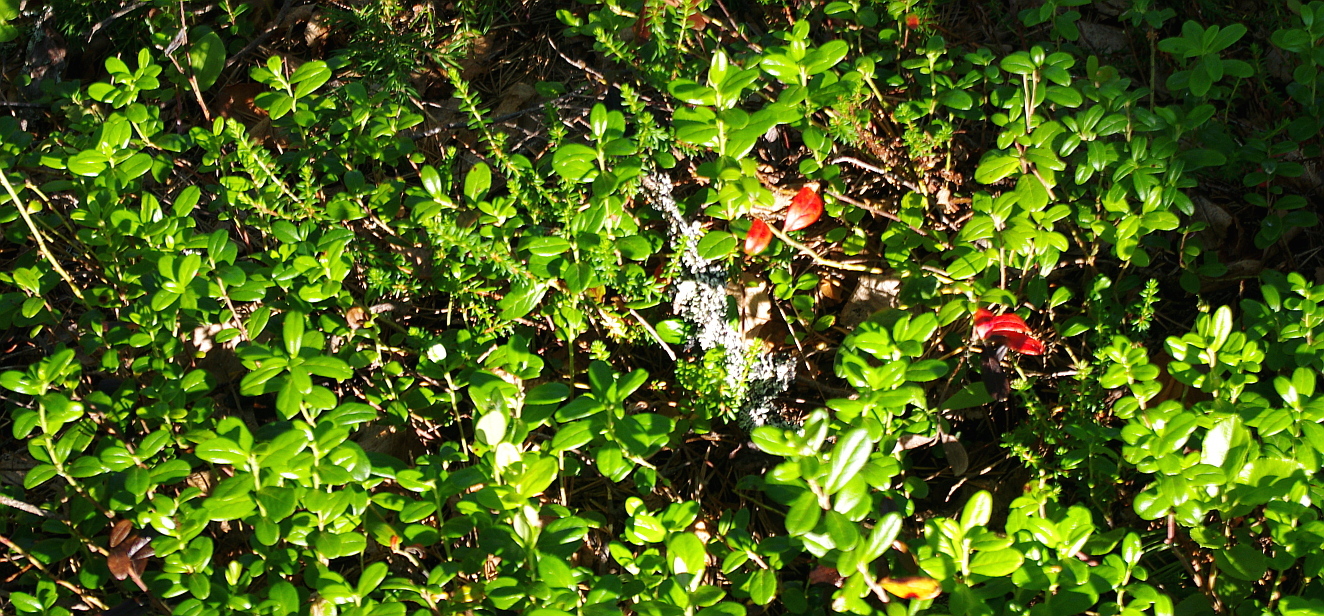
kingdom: Plantae
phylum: Tracheophyta
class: Magnoliopsida
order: Ericales
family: Ericaceae
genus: Vaccinium
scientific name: Vaccinium vitis-idaea
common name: Cowberry
